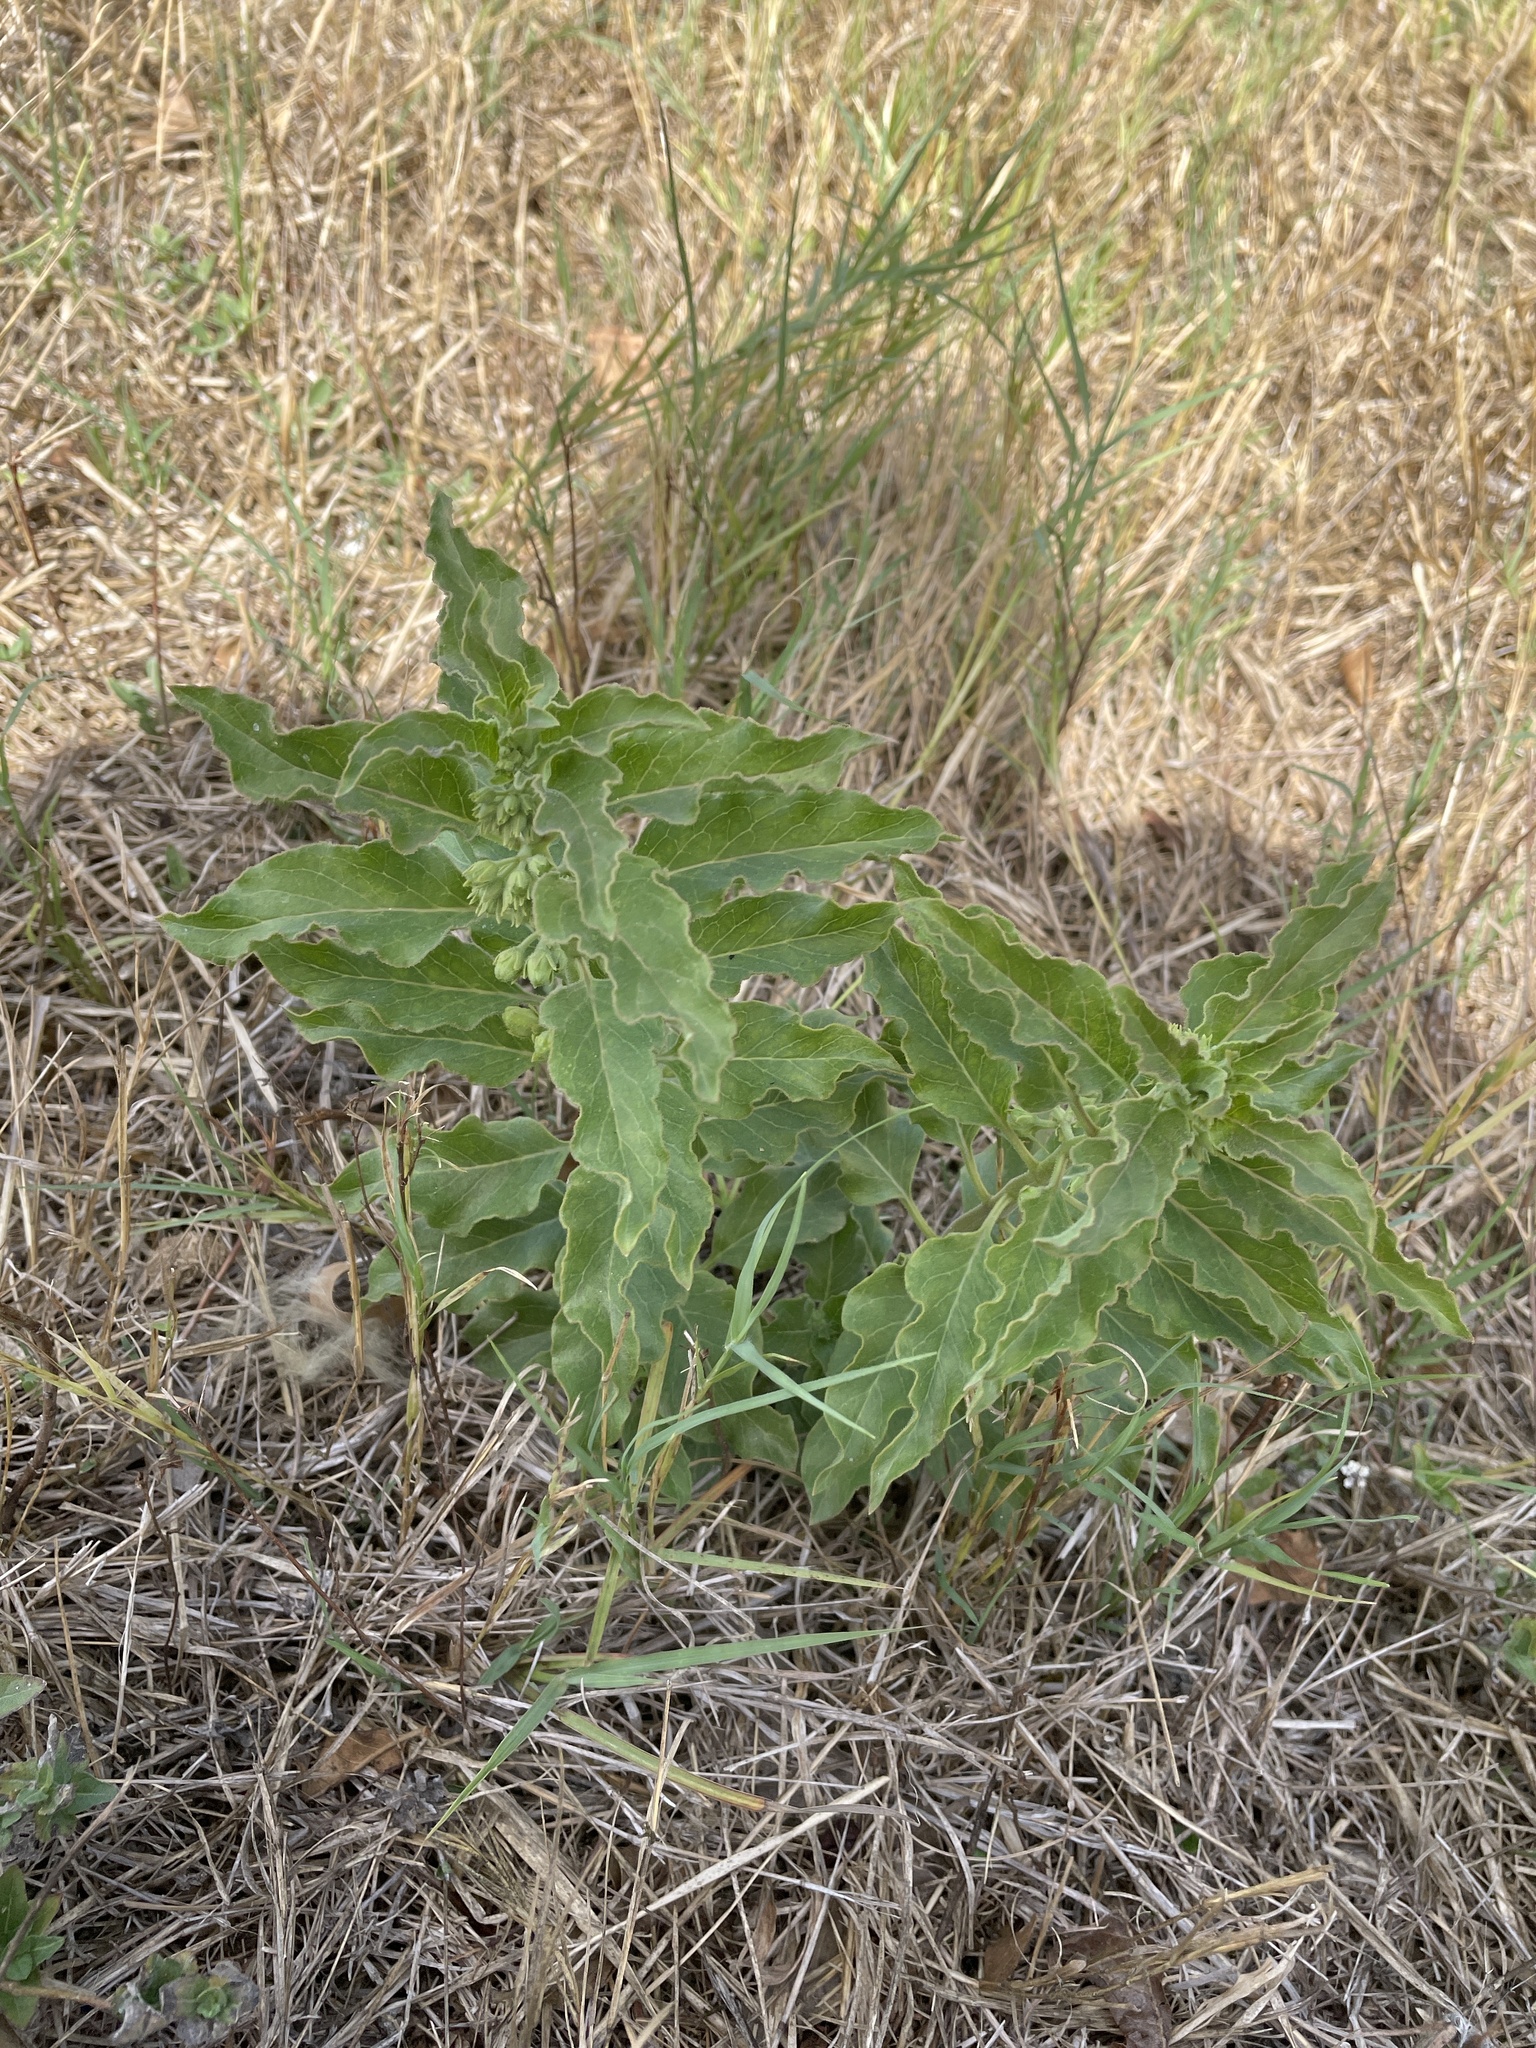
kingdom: Plantae
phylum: Tracheophyta
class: Magnoliopsida
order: Gentianales
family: Apocynaceae
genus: Asclepias
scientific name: Asclepias oenotheroides
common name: Zizotes milkweed
